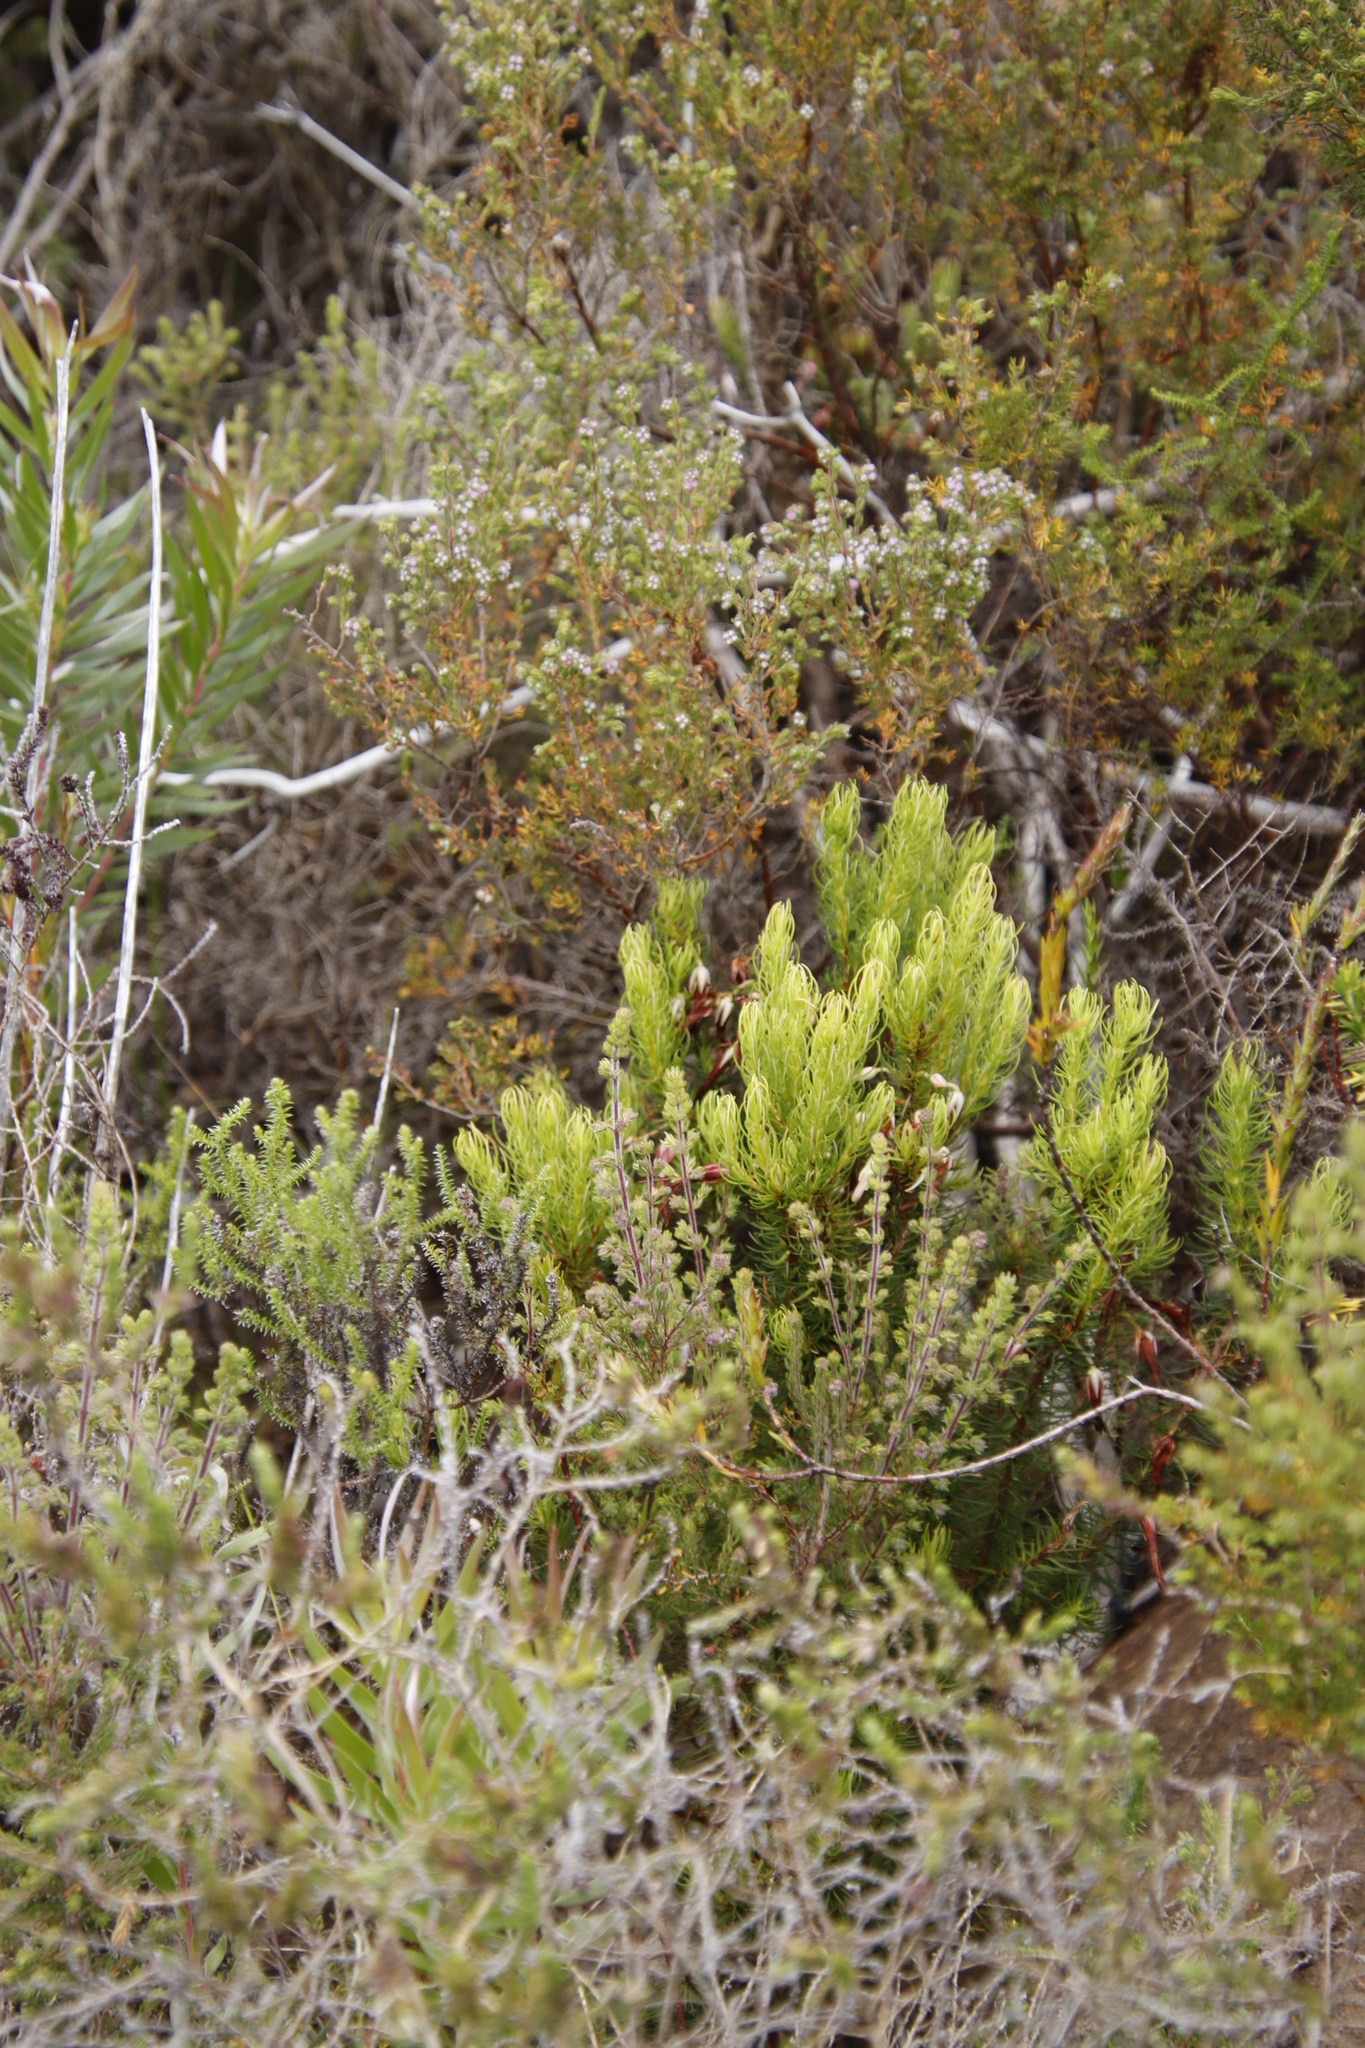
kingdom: Plantae
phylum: Tracheophyta
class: Magnoliopsida
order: Ericales
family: Ericaceae
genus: Erica
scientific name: Erica plukenetii
